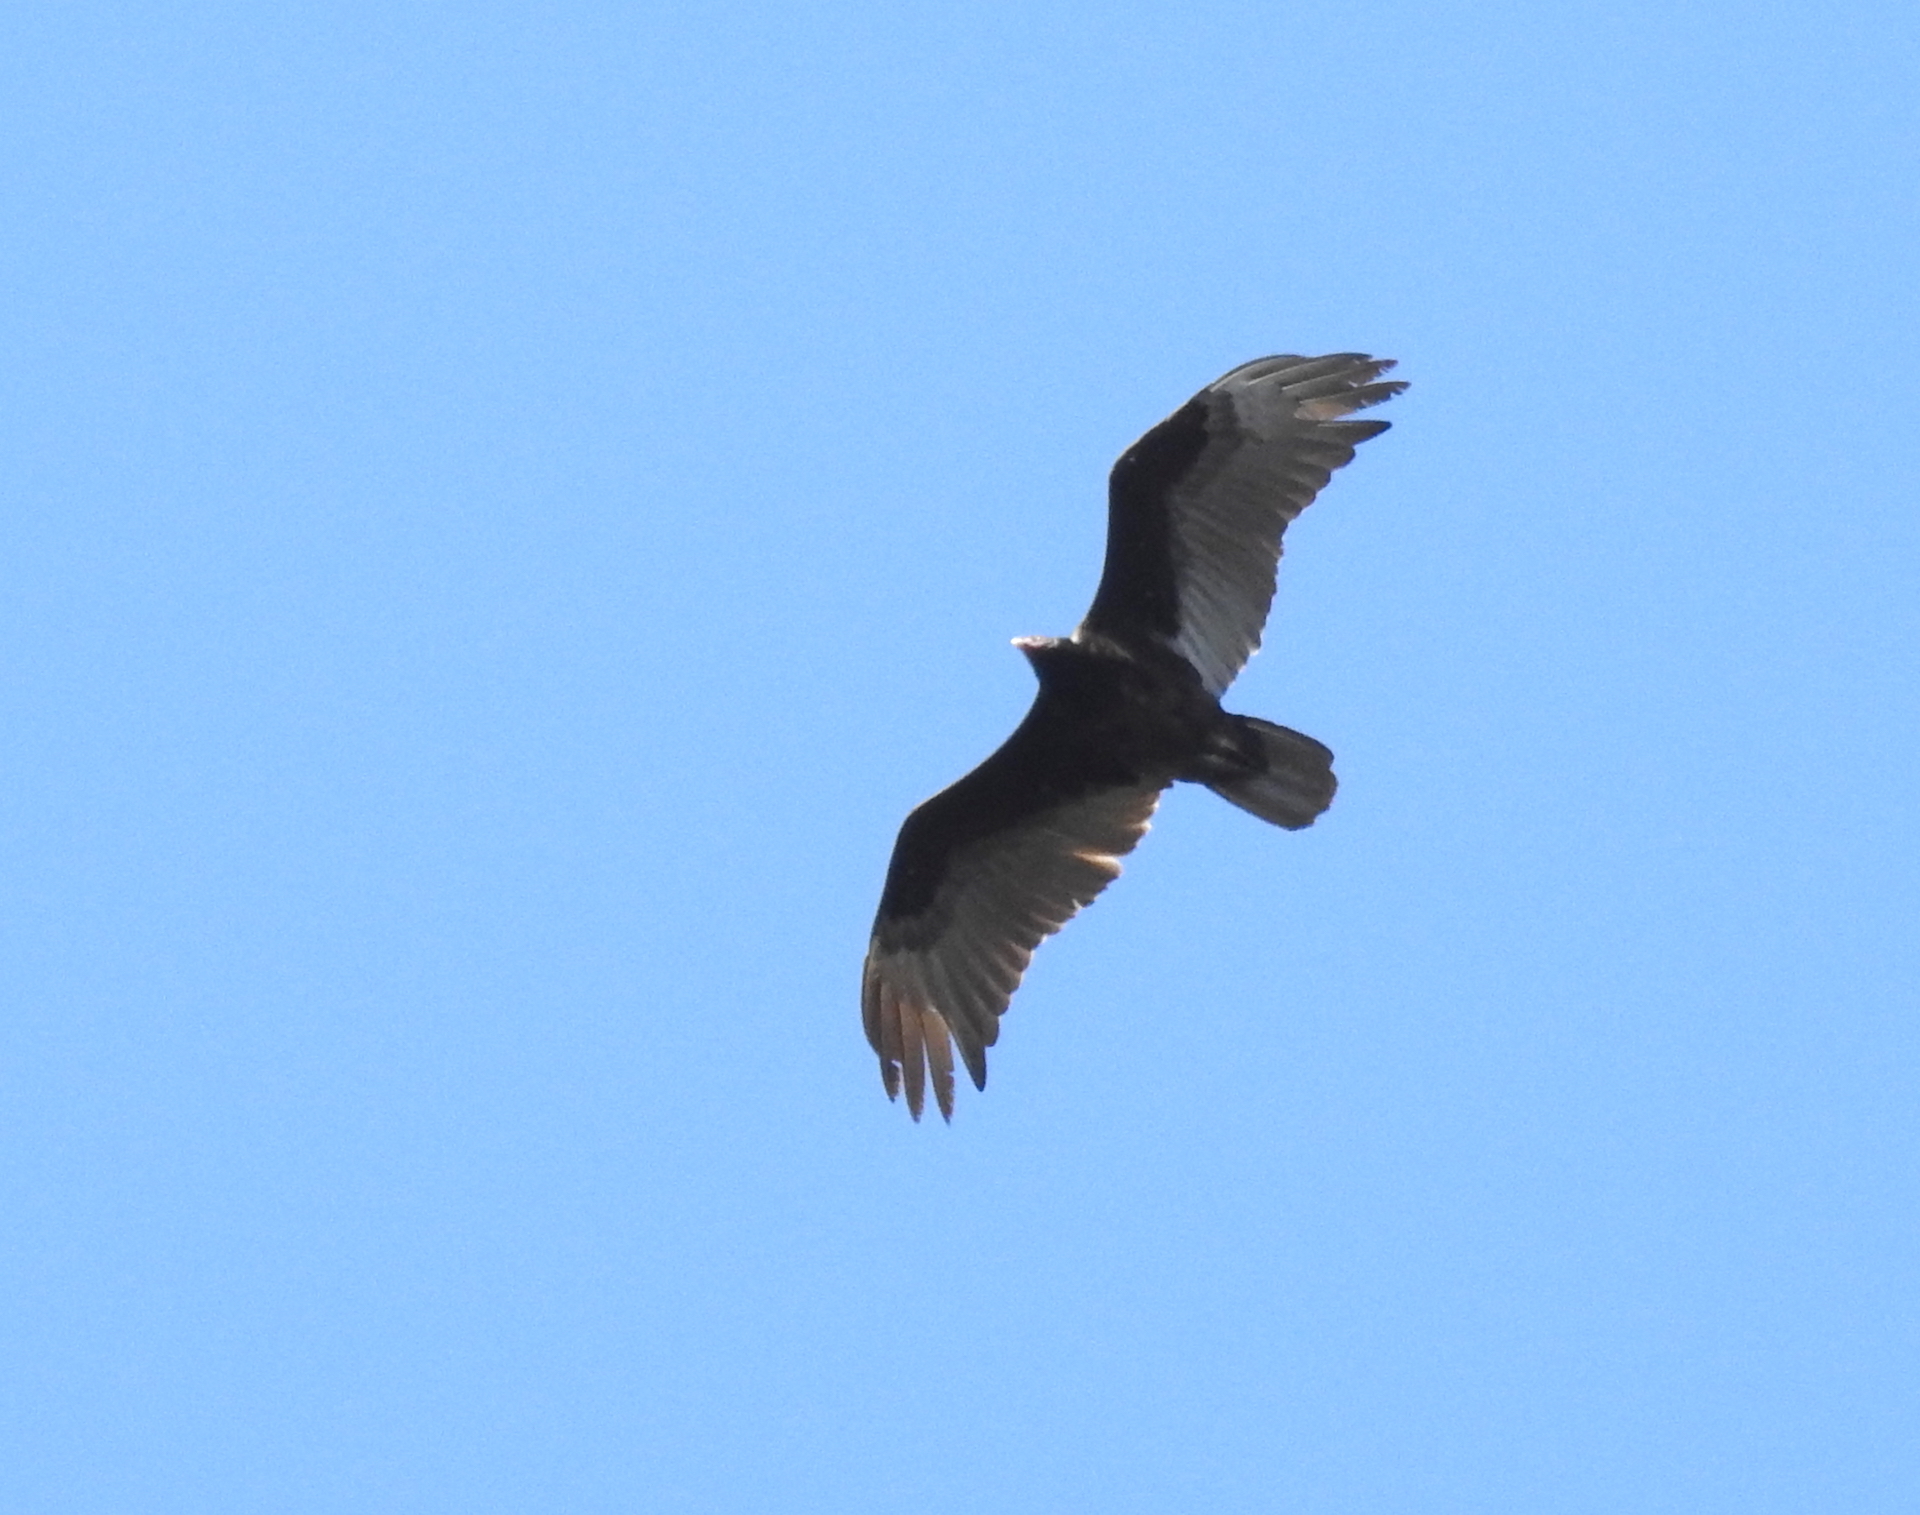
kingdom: Animalia
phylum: Chordata
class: Aves
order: Accipitriformes
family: Cathartidae
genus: Cathartes
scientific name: Cathartes aura
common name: Turkey vulture
